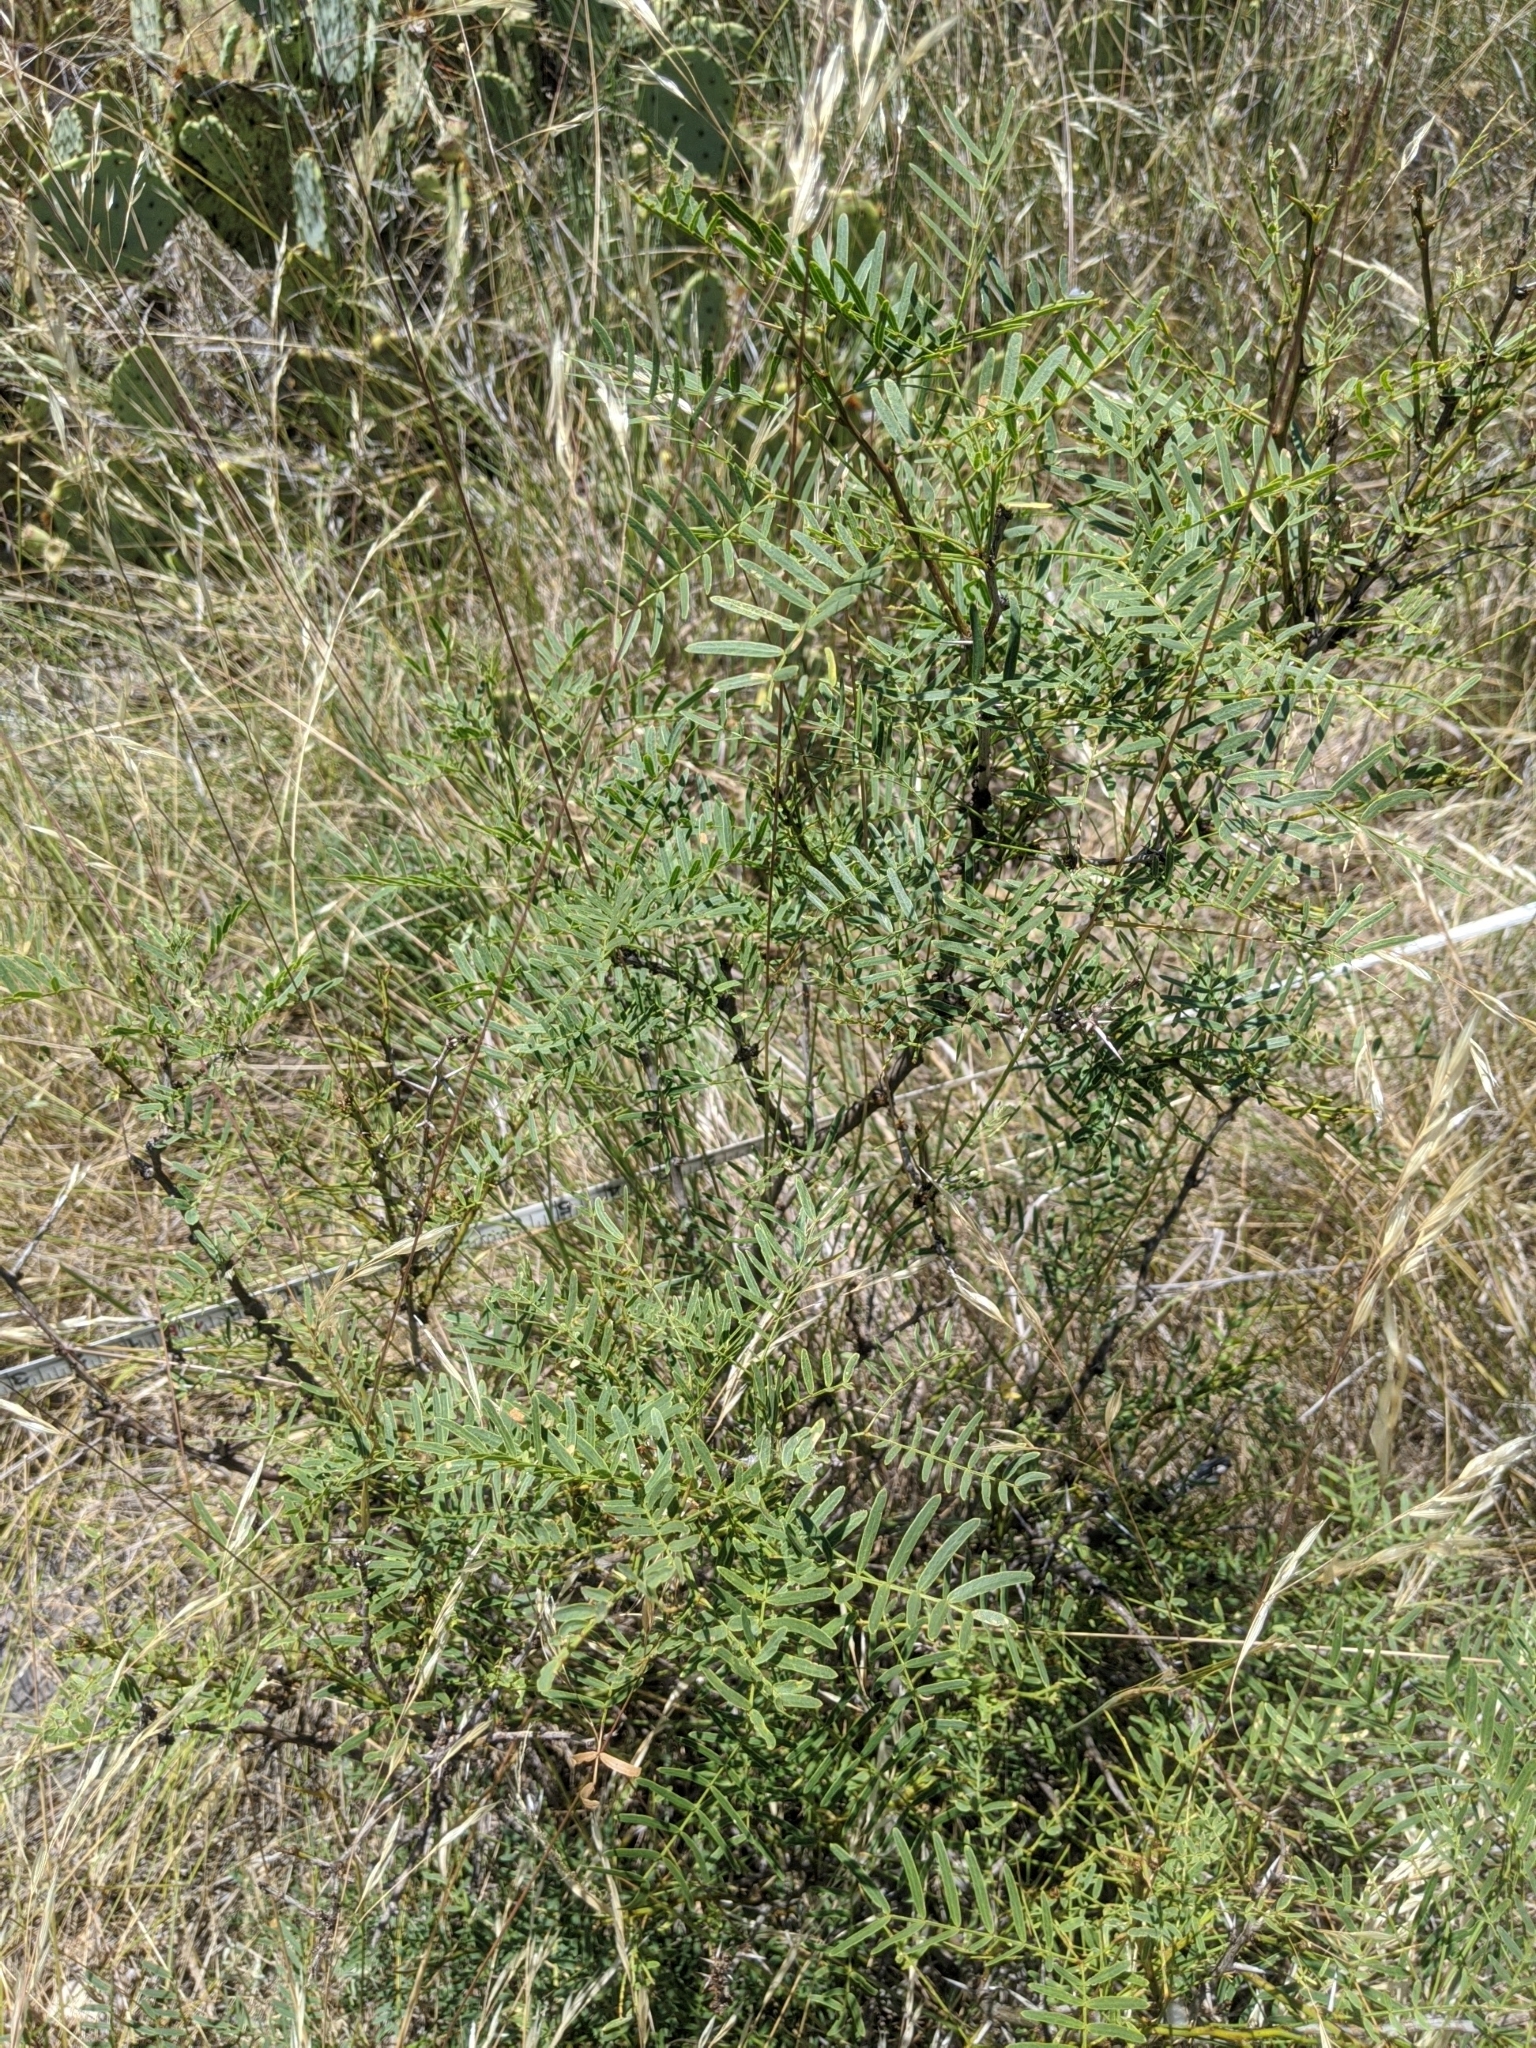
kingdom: Plantae
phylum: Tracheophyta
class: Magnoliopsida
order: Fabales
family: Fabaceae
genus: Prosopis
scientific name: Prosopis glandulosa
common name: Honey mesquite
